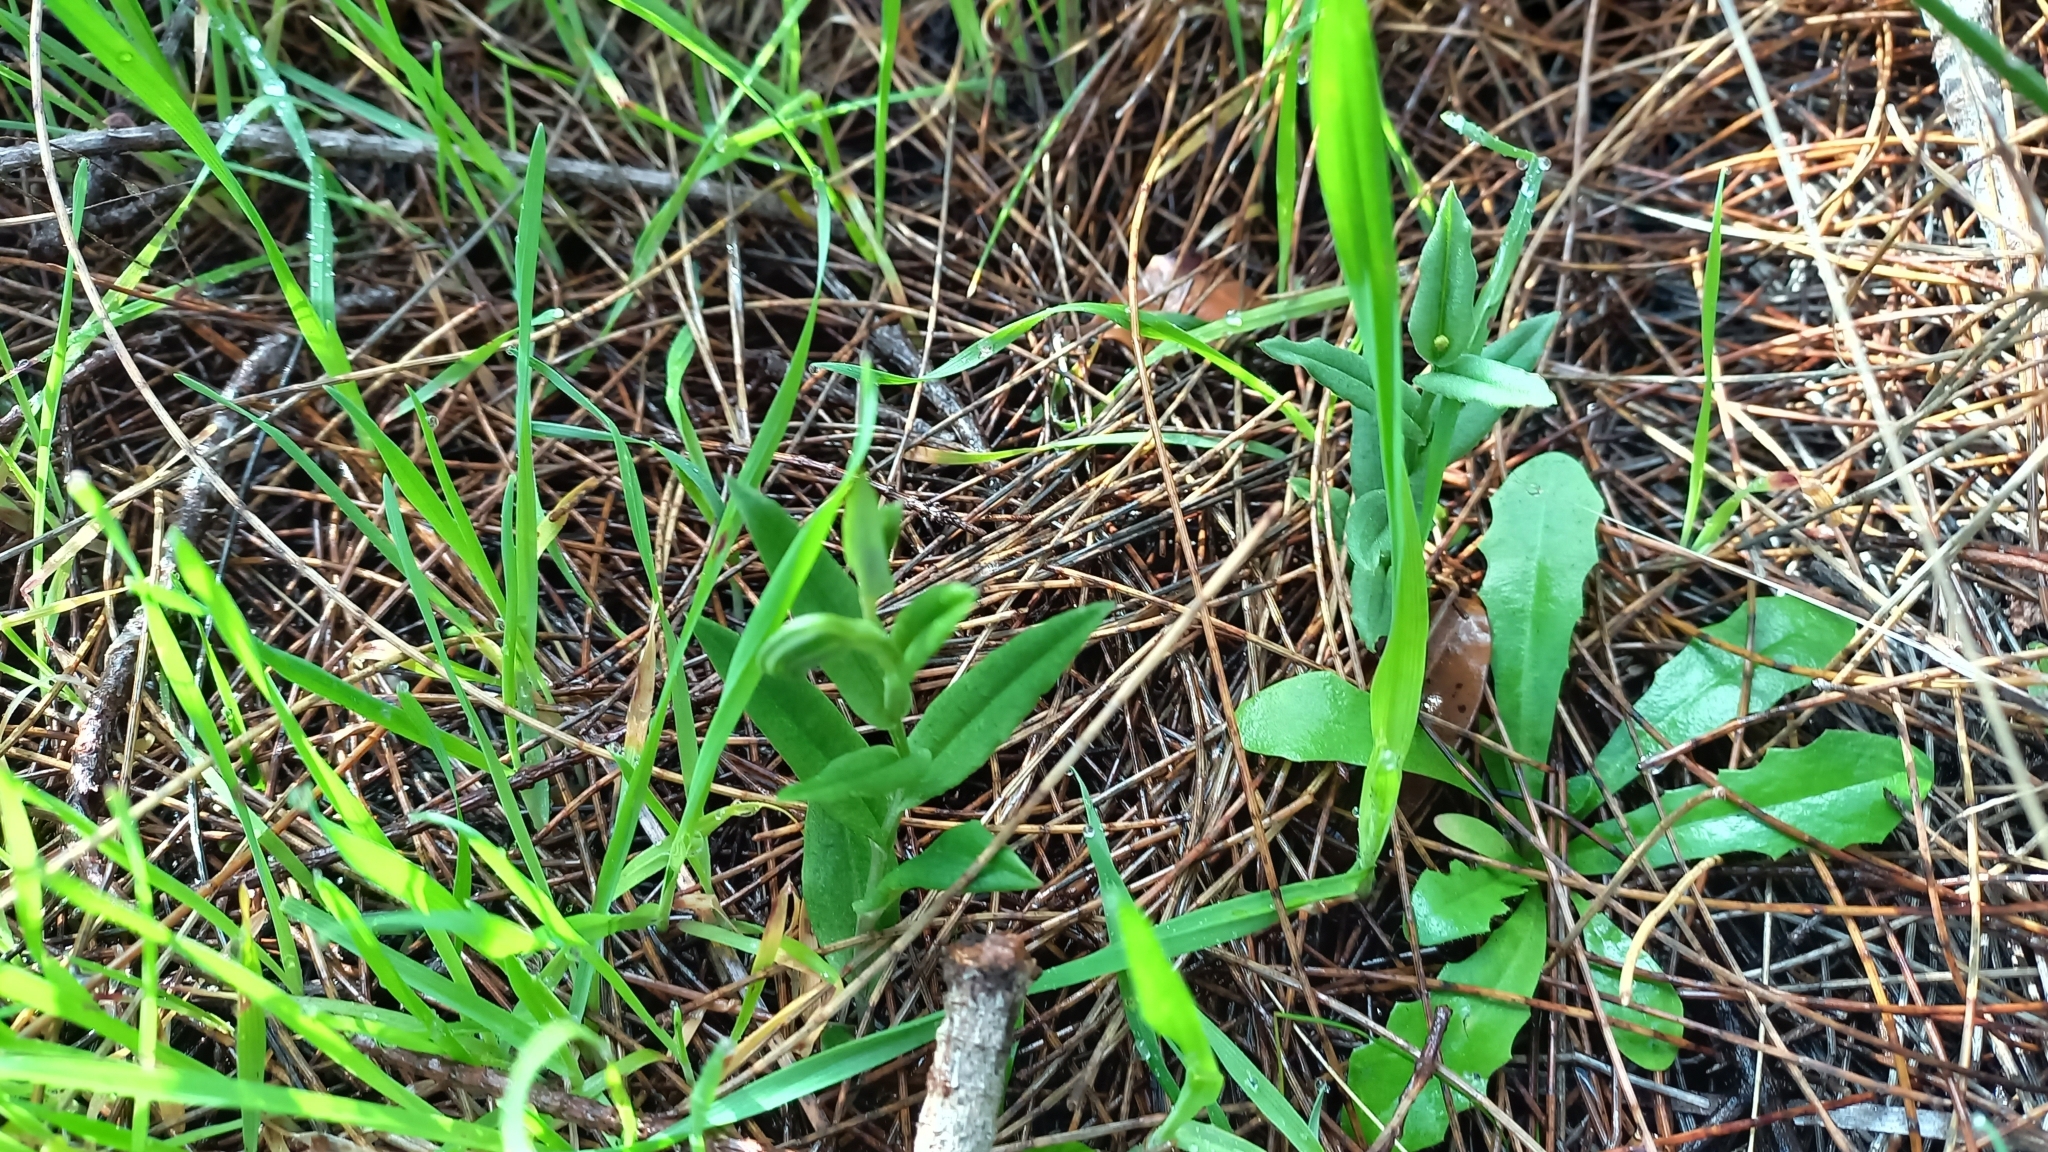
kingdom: Plantae
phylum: Tracheophyta
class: Liliopsida
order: Asparagales
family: Orchidaceae
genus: Pterostylis
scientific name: Pterostylis vittata
